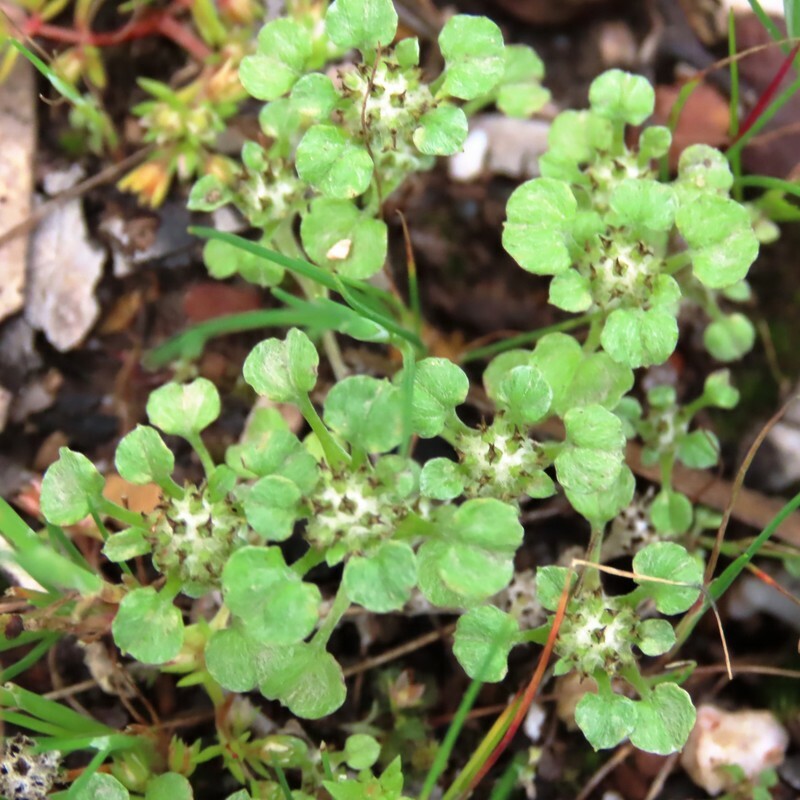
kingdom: Plantae
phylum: Tracheophyta
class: Magnoliopsida
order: Asterales
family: Asteraceae
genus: Stuartina
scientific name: Stuartina muelleri
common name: Spoon-leaved cudweed
